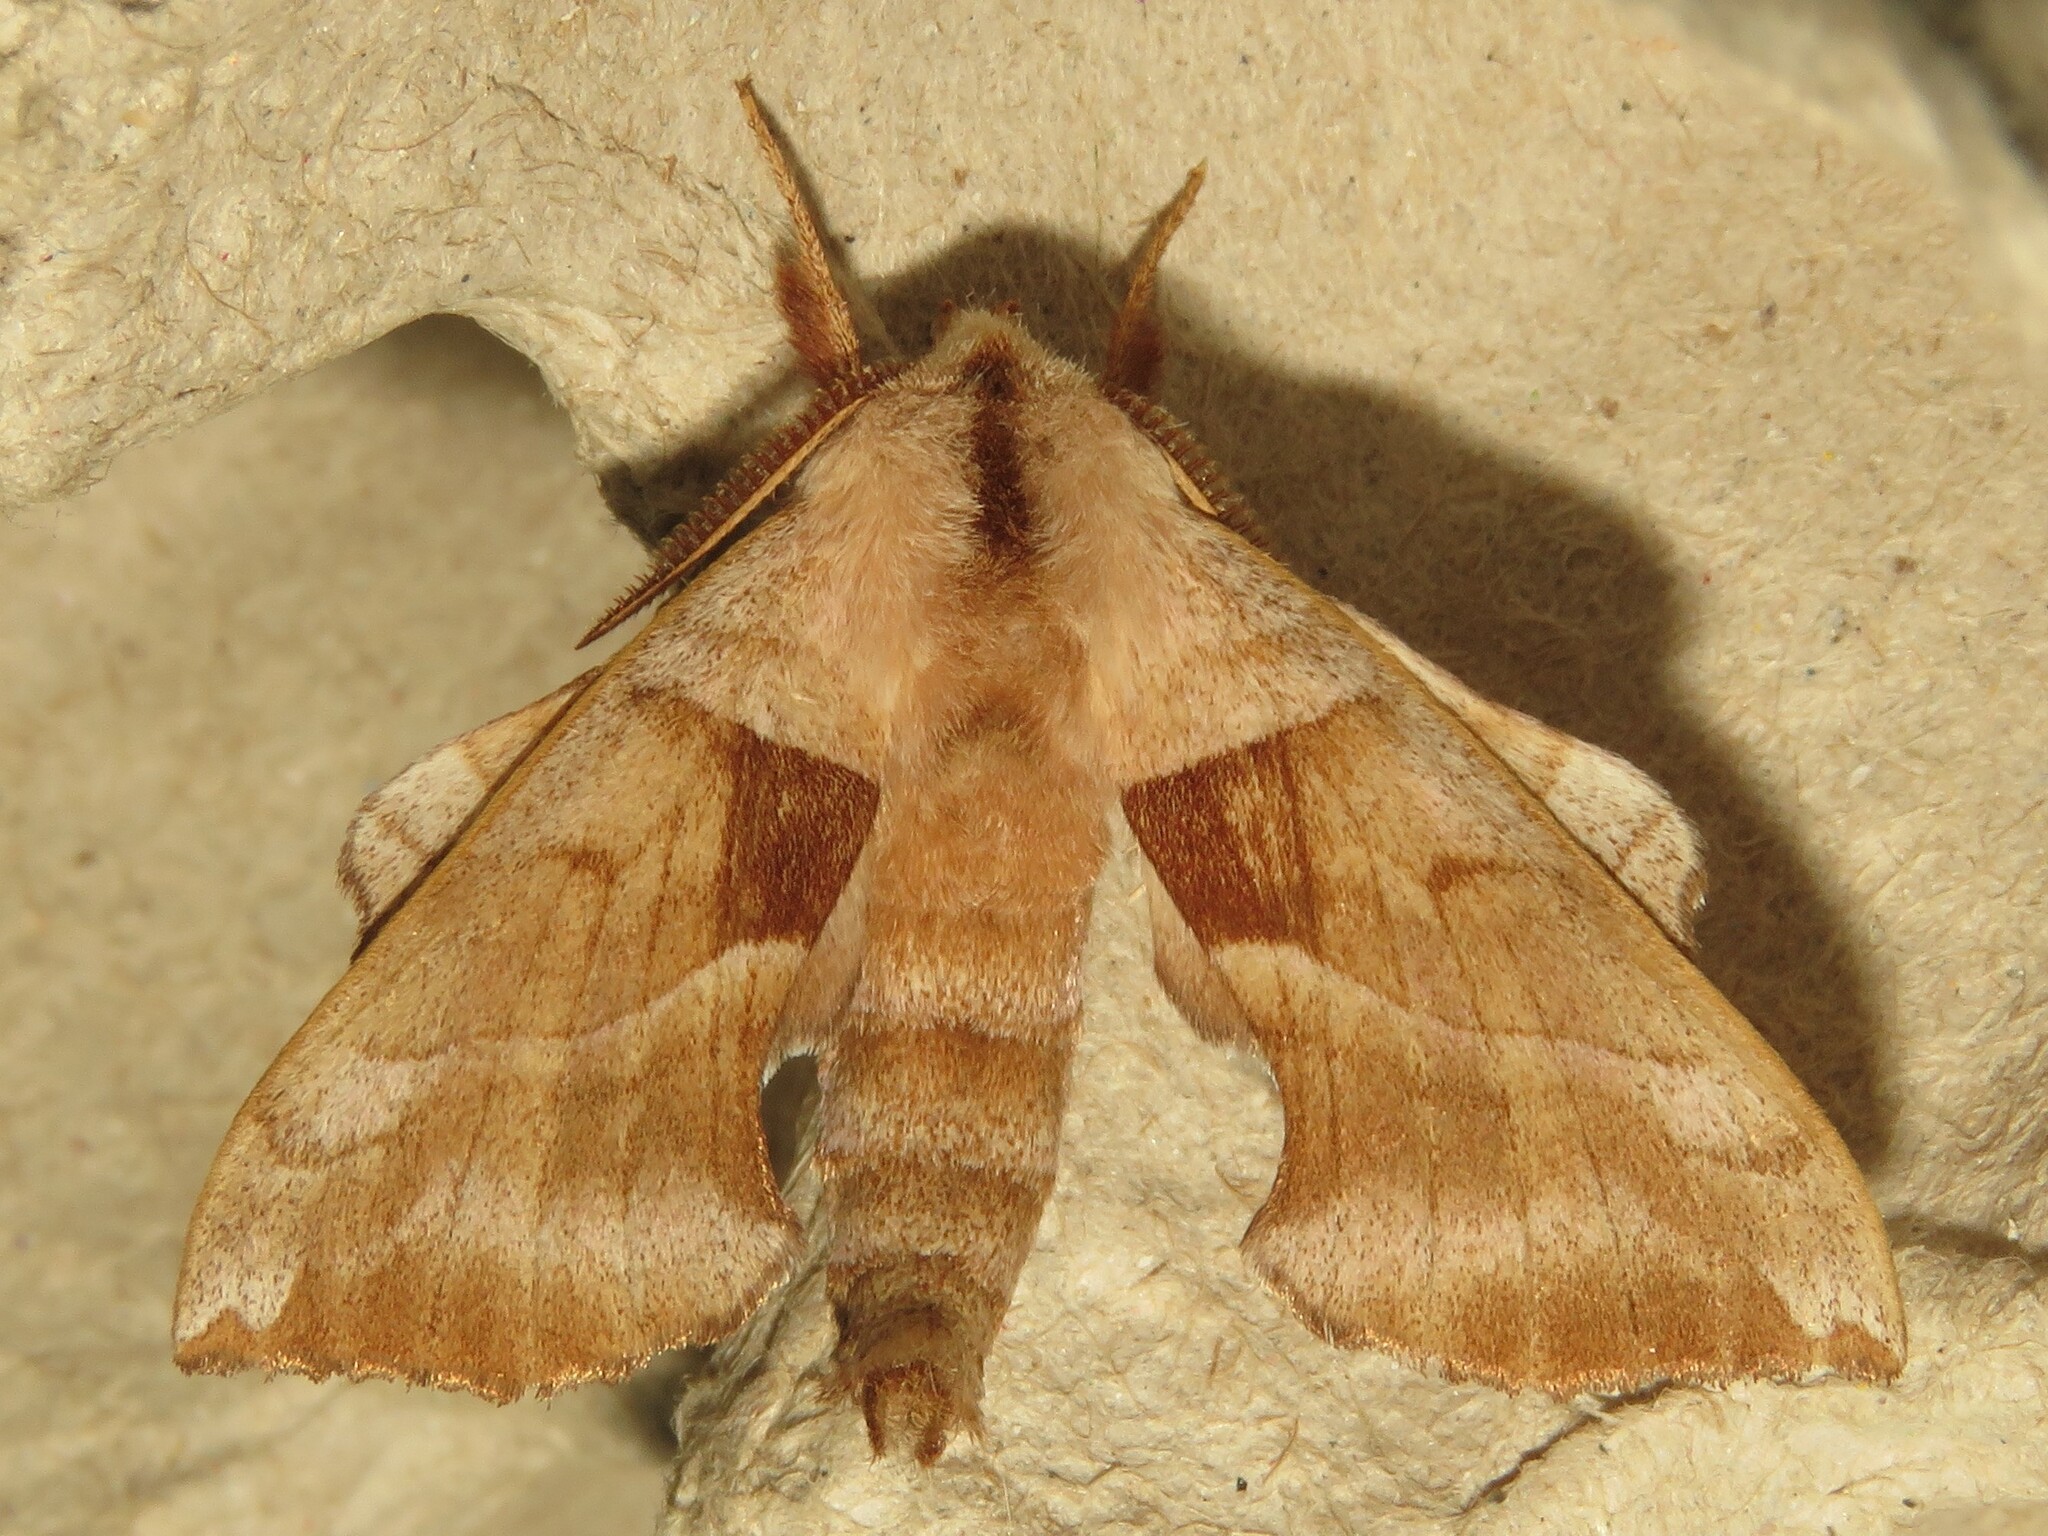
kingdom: Animalia
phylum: Arthropoda
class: Insecta
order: Lepidoptera
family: Sphingidae
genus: Amorpha
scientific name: Amorpha juglandis
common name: Walnut sphinx
